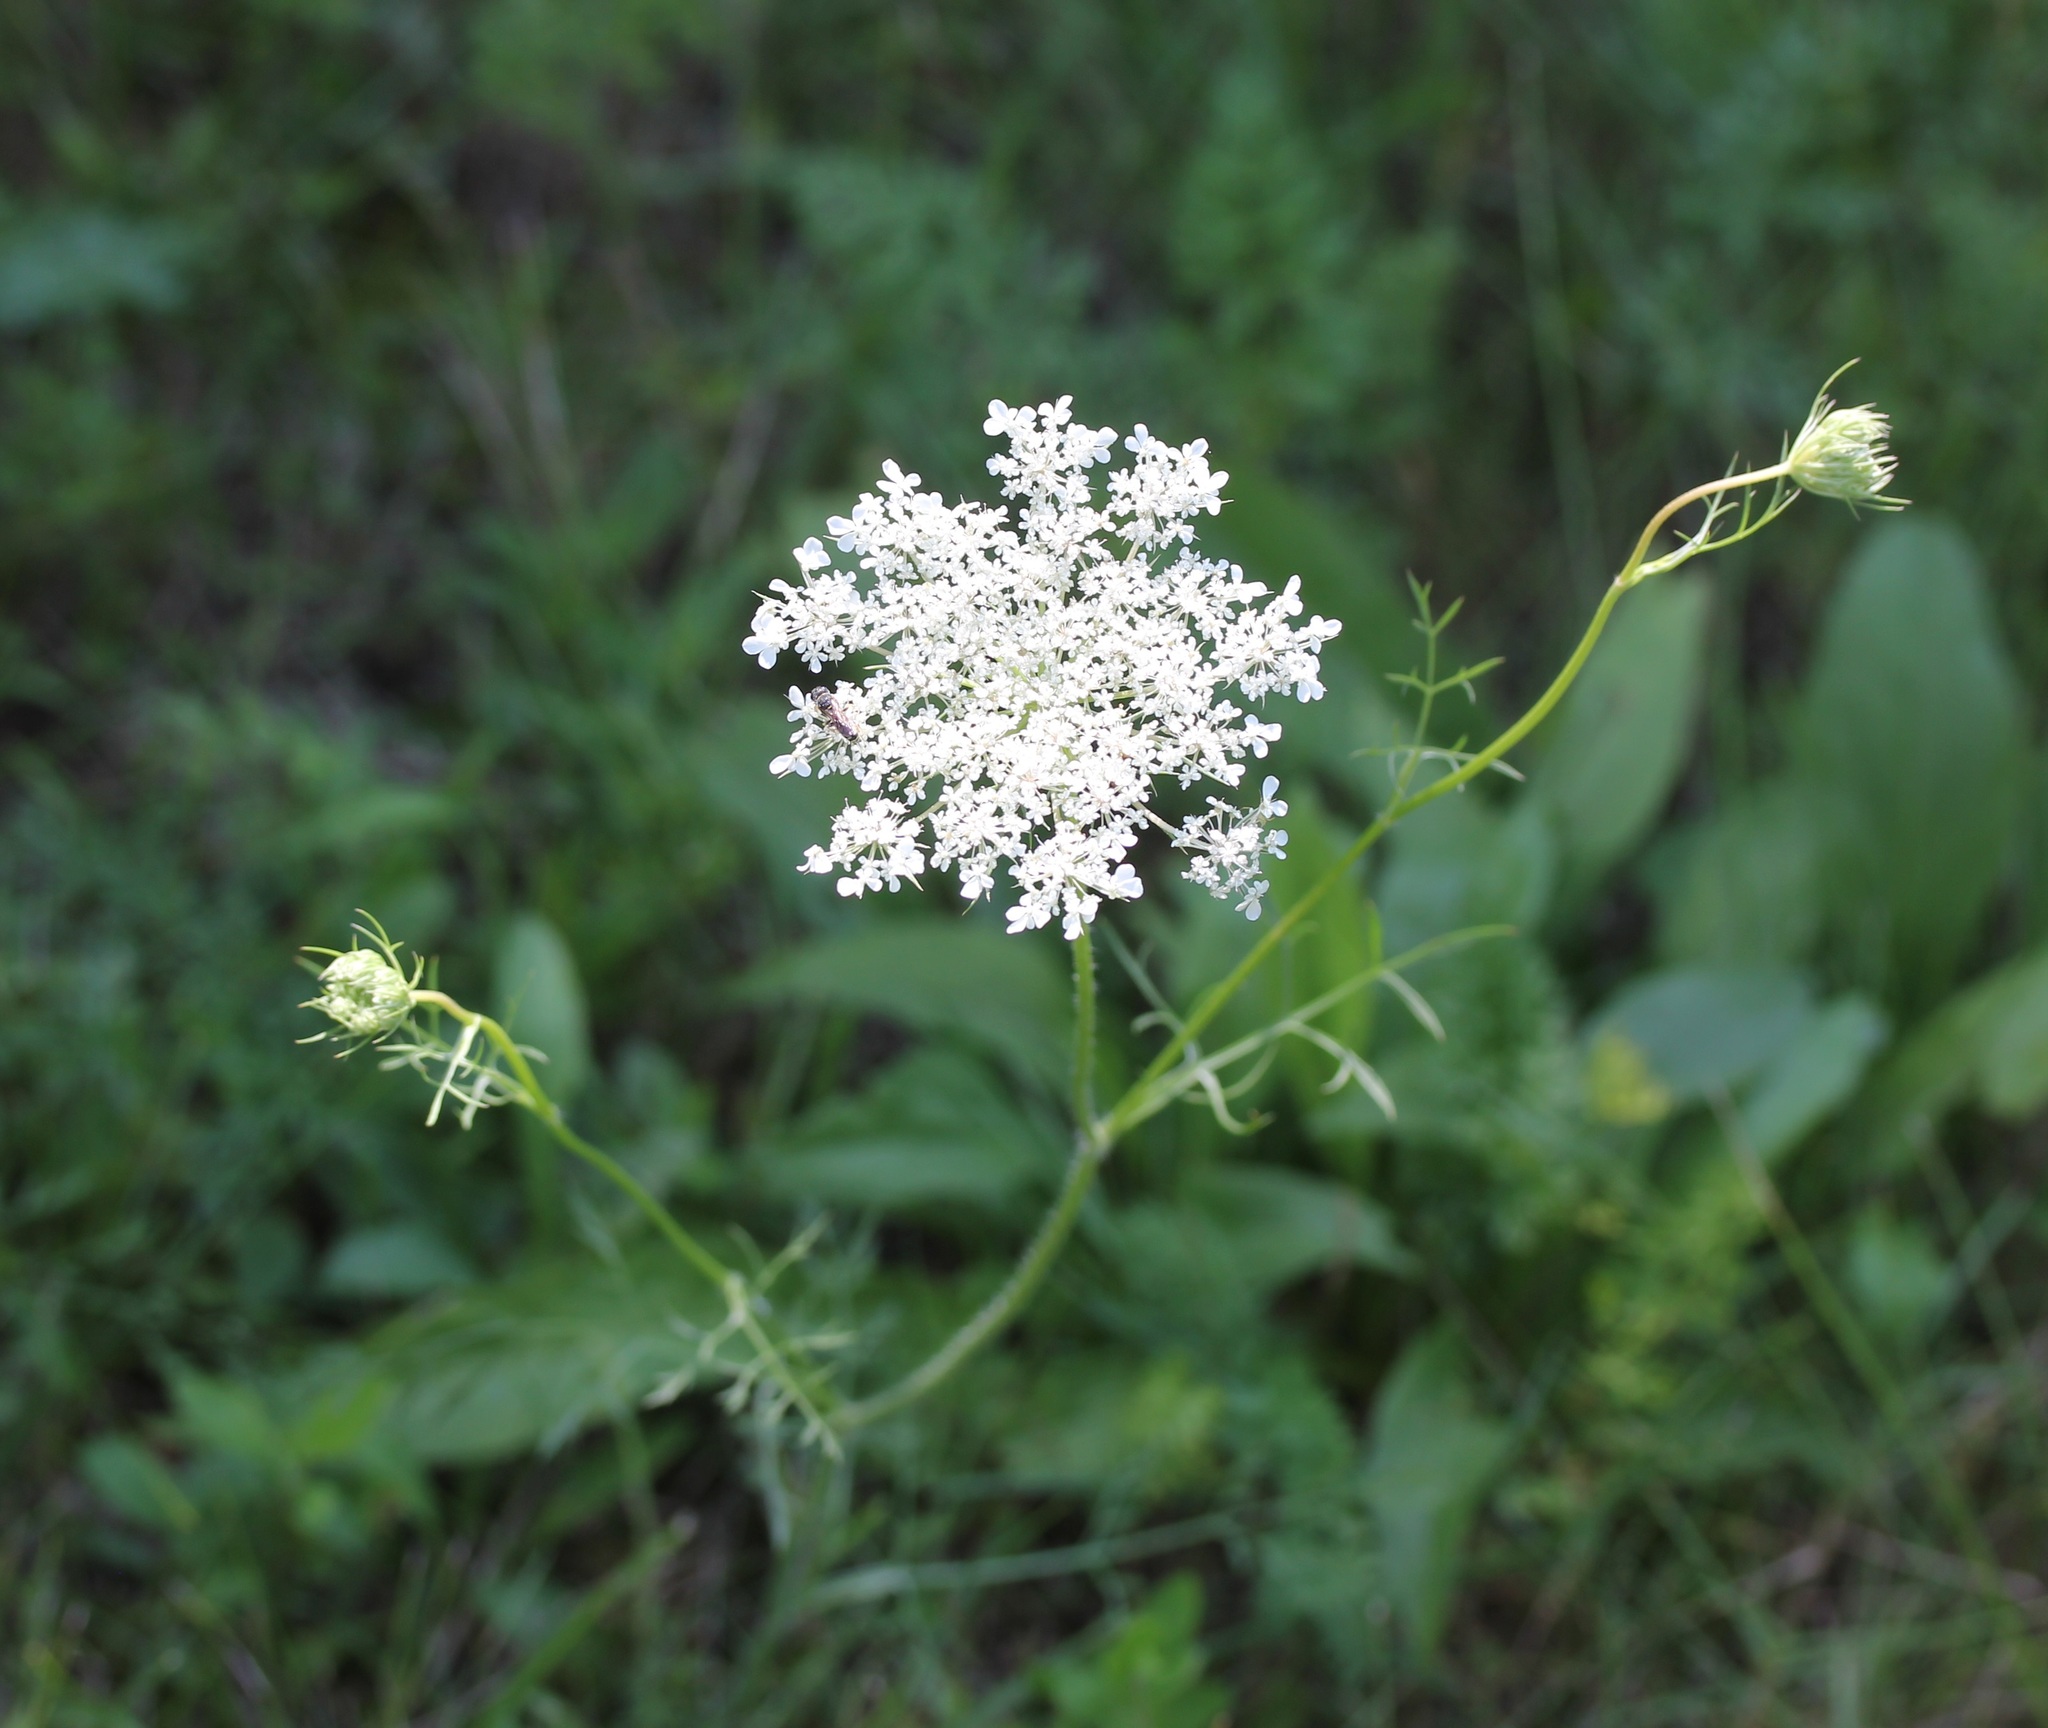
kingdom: Plantae
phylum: Tracheophyta
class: Magnoliopsida
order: Apiales
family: Apiaceae
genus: Daucus
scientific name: Daucus carota
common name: Wild carrot
